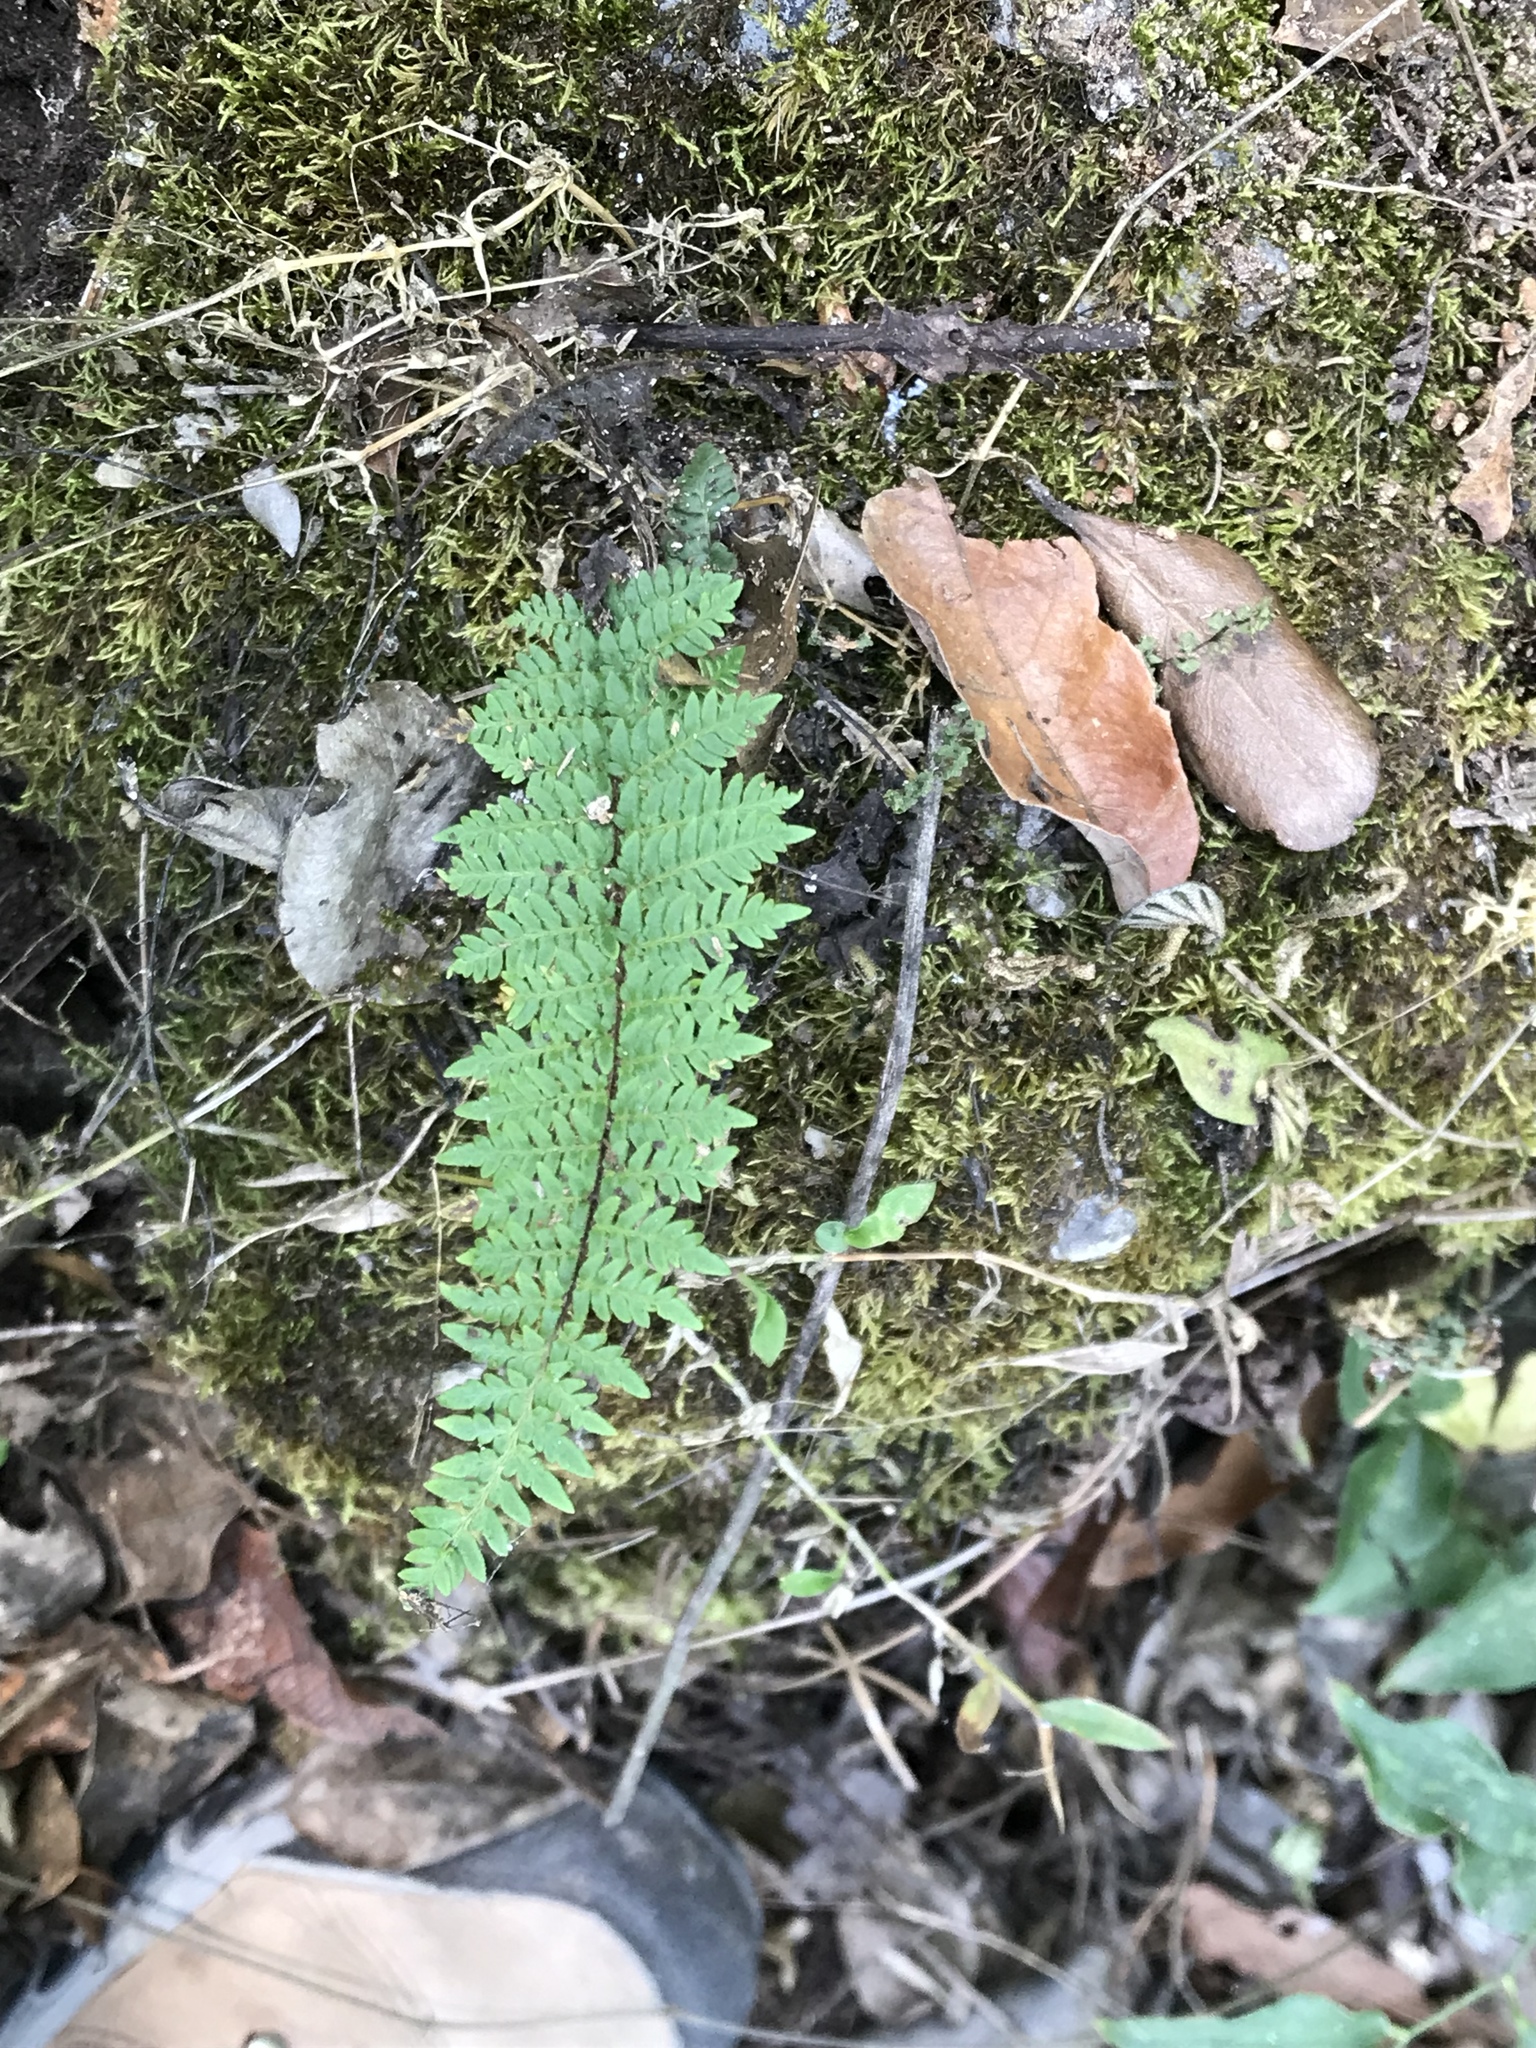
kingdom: Plantae
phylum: Tracheophyta
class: Polypodiopsida
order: Polypodiales
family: Pteridaceae
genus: Myriopteris
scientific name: Myriopteris alabamensis
